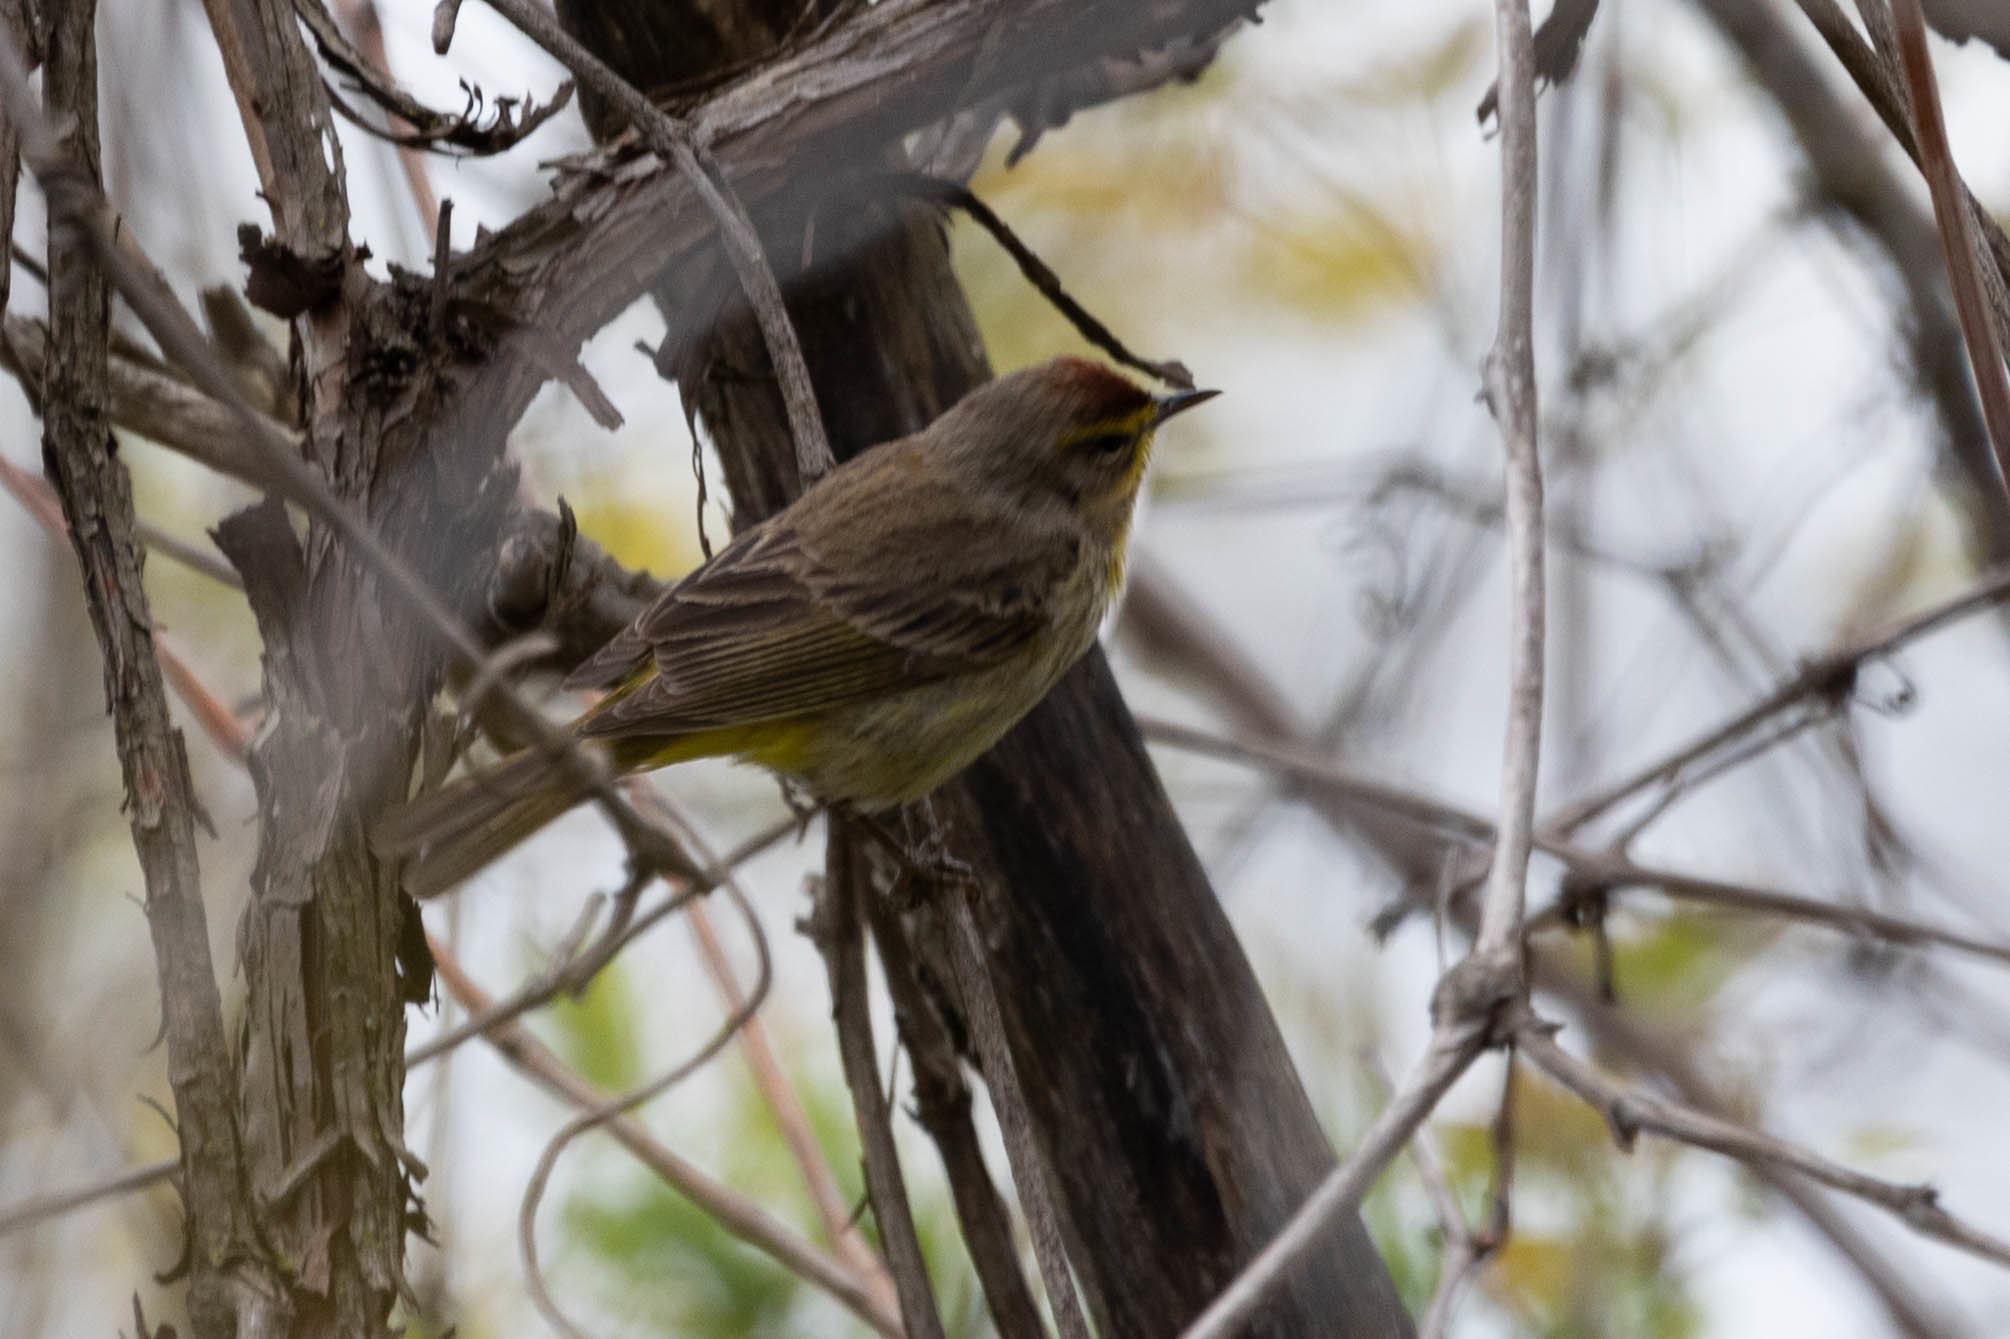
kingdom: Animalia
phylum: Chordata
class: Aves
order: Passeriformes
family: Parulidae
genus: Setophaga
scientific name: Setophaga palmarum
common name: Palm warbler
